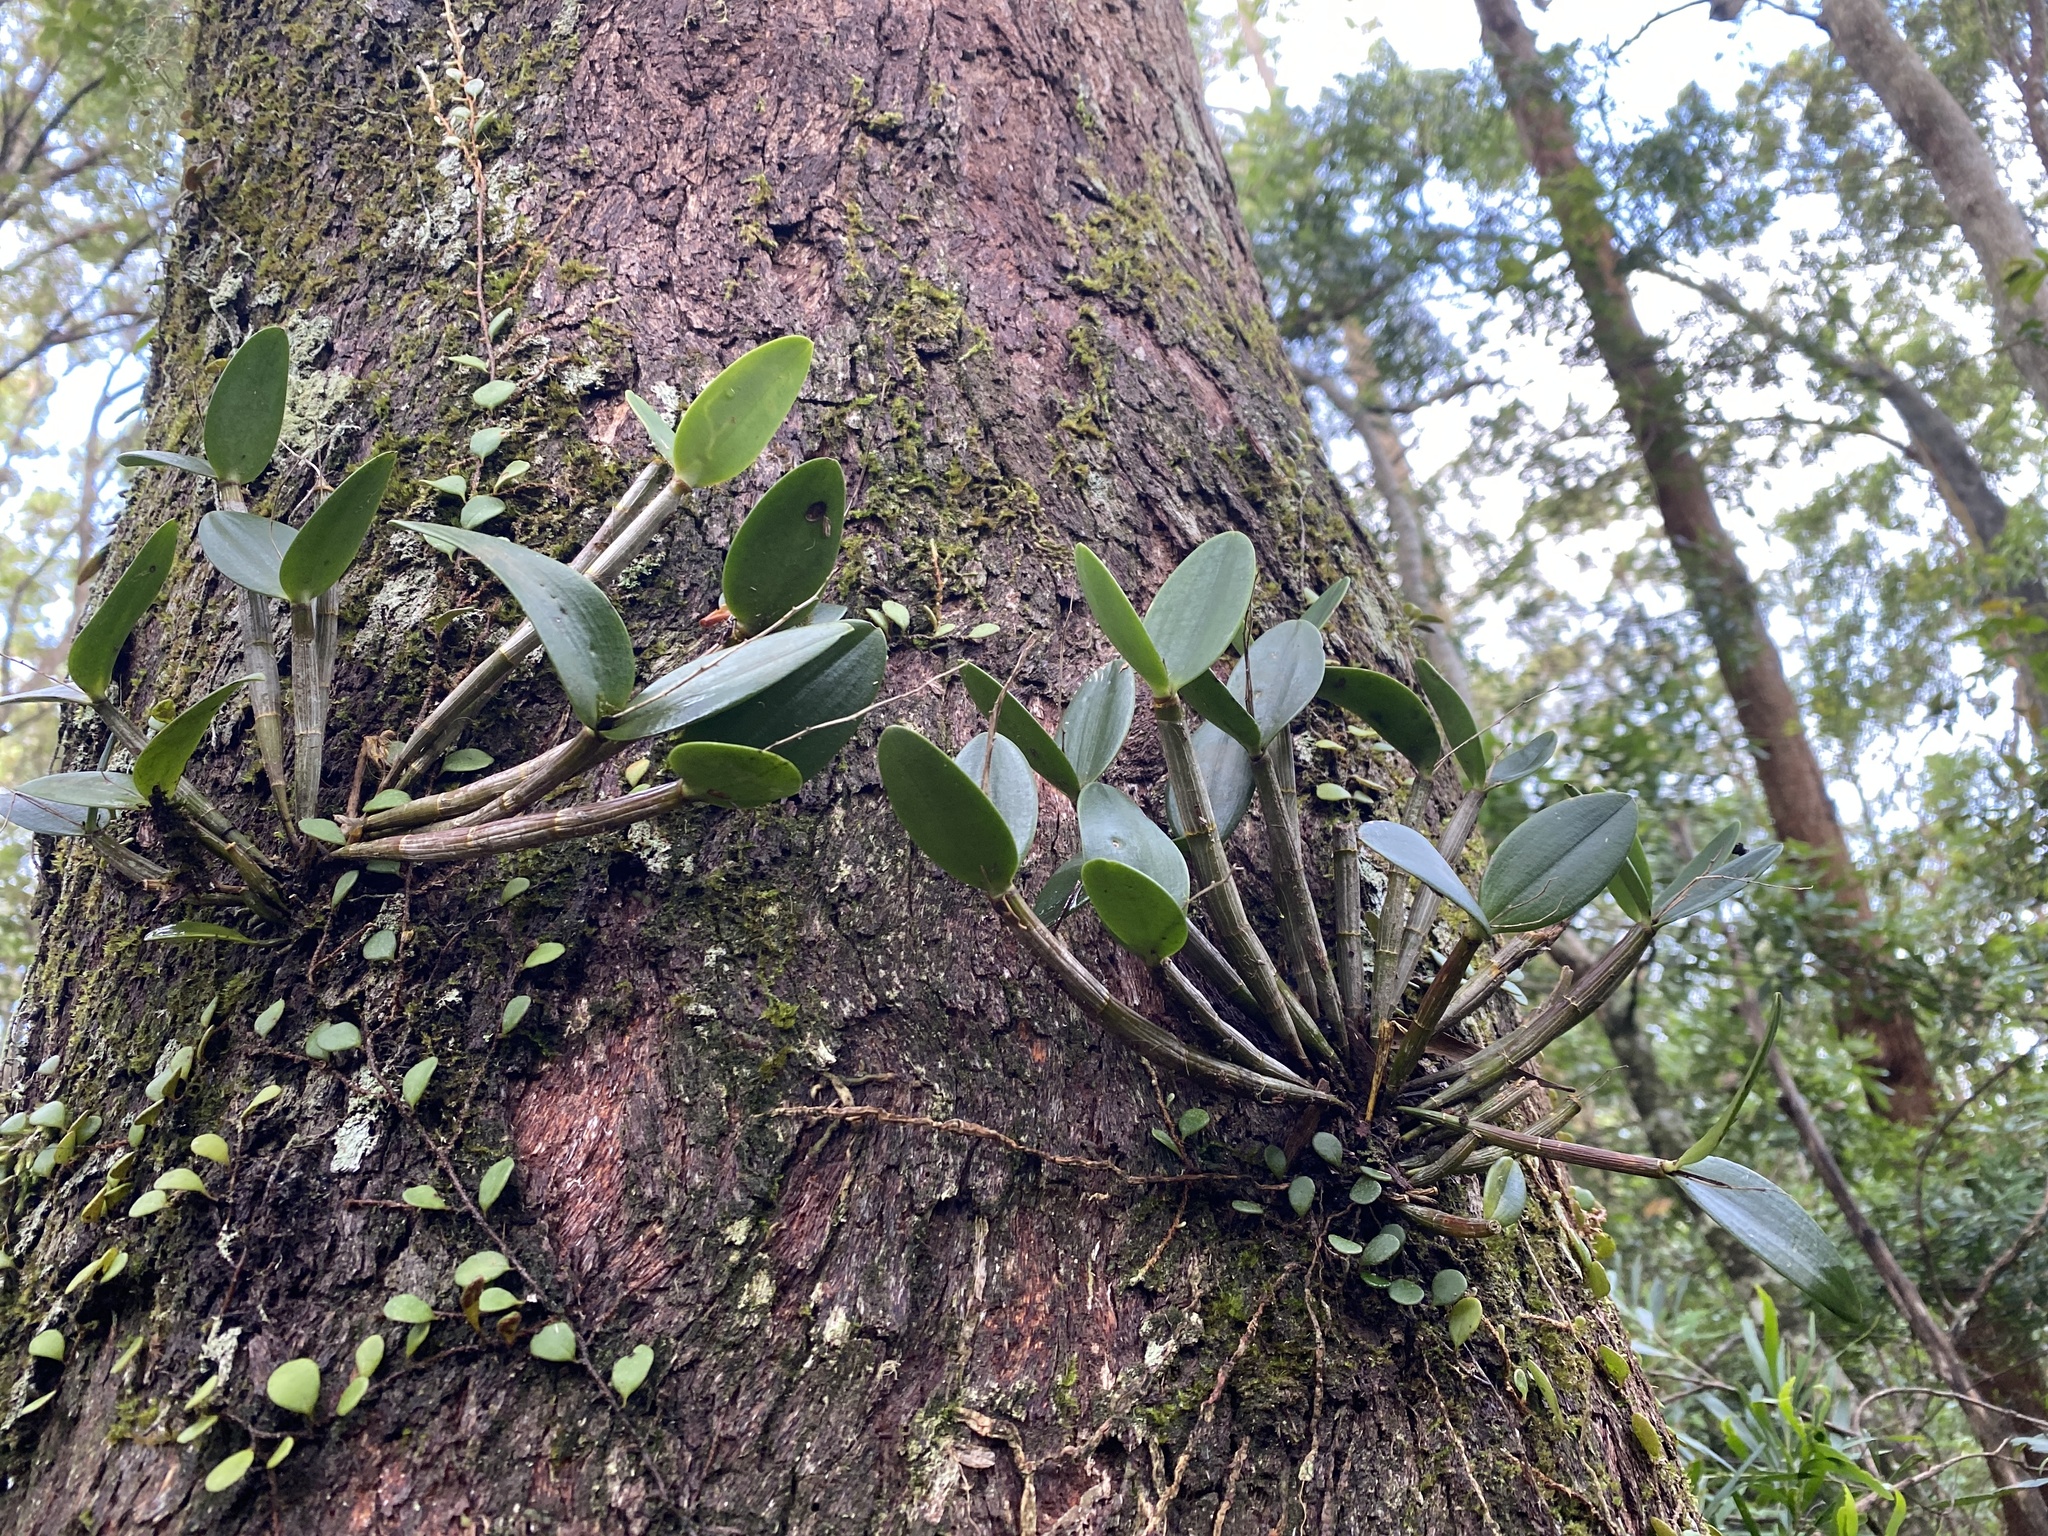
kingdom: Plantae
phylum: Tracheophyta
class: Liliopsida
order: Asparagales
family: Orchidaceae
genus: Dendrobium
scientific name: Dendrobium aemulum
